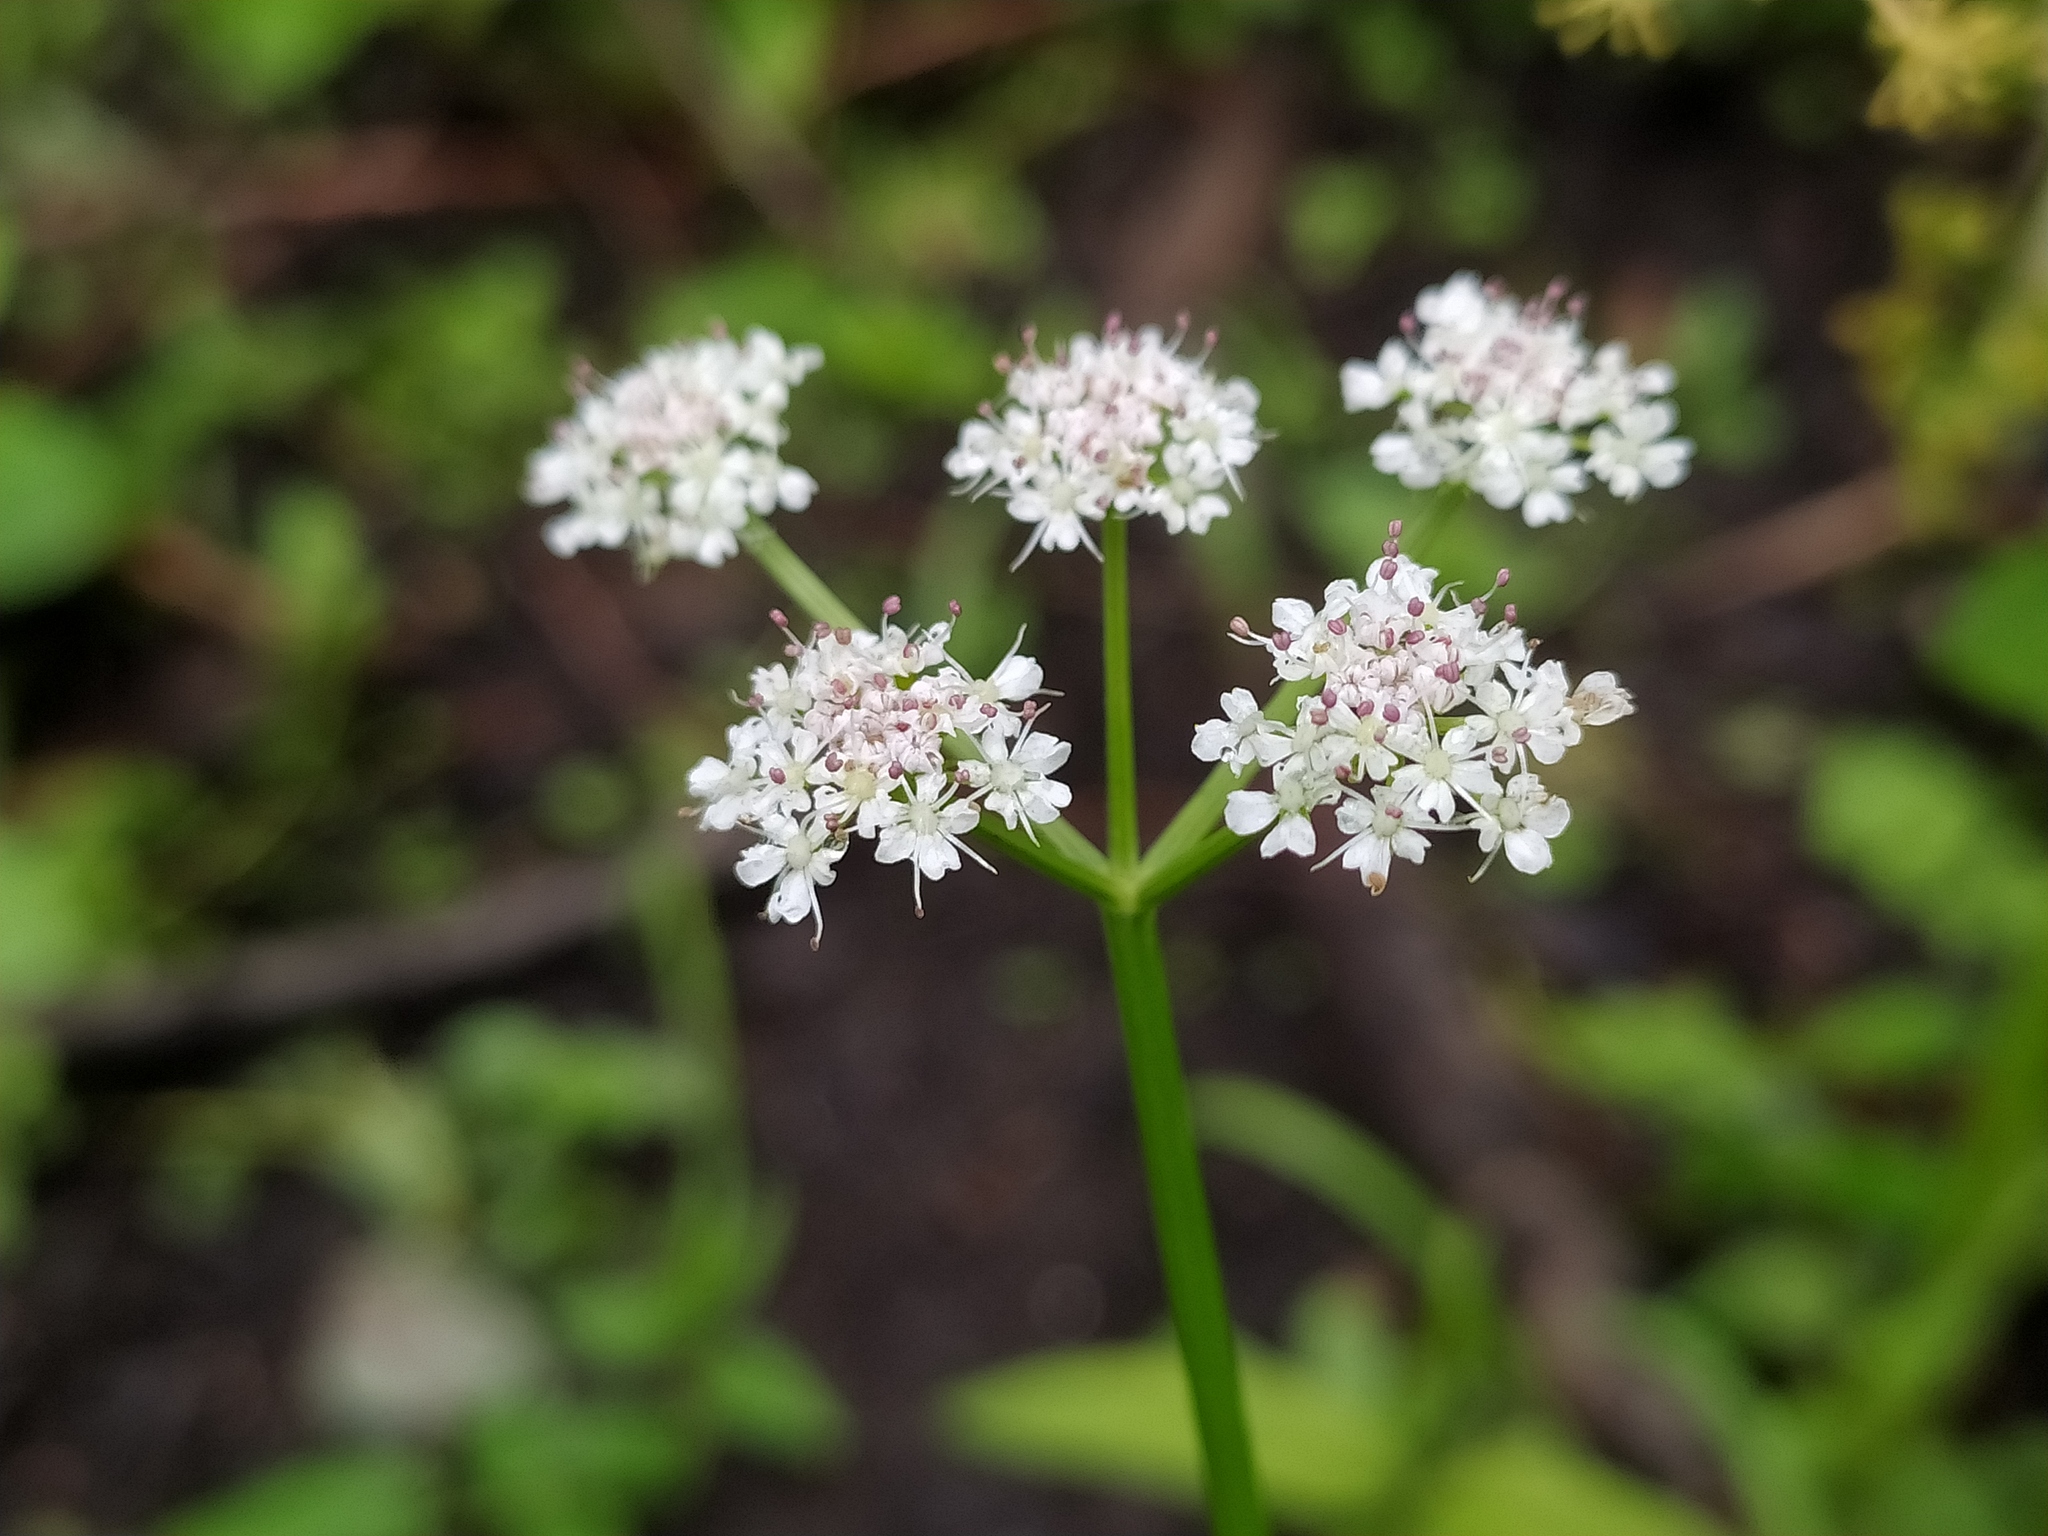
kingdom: Plantae
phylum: Tracheophyta
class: Magnoliopsida
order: Apiales
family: Apiaceae
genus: Oenanthe
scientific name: Oenanthe aquatica
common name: Fine-leaved water-dropwort
